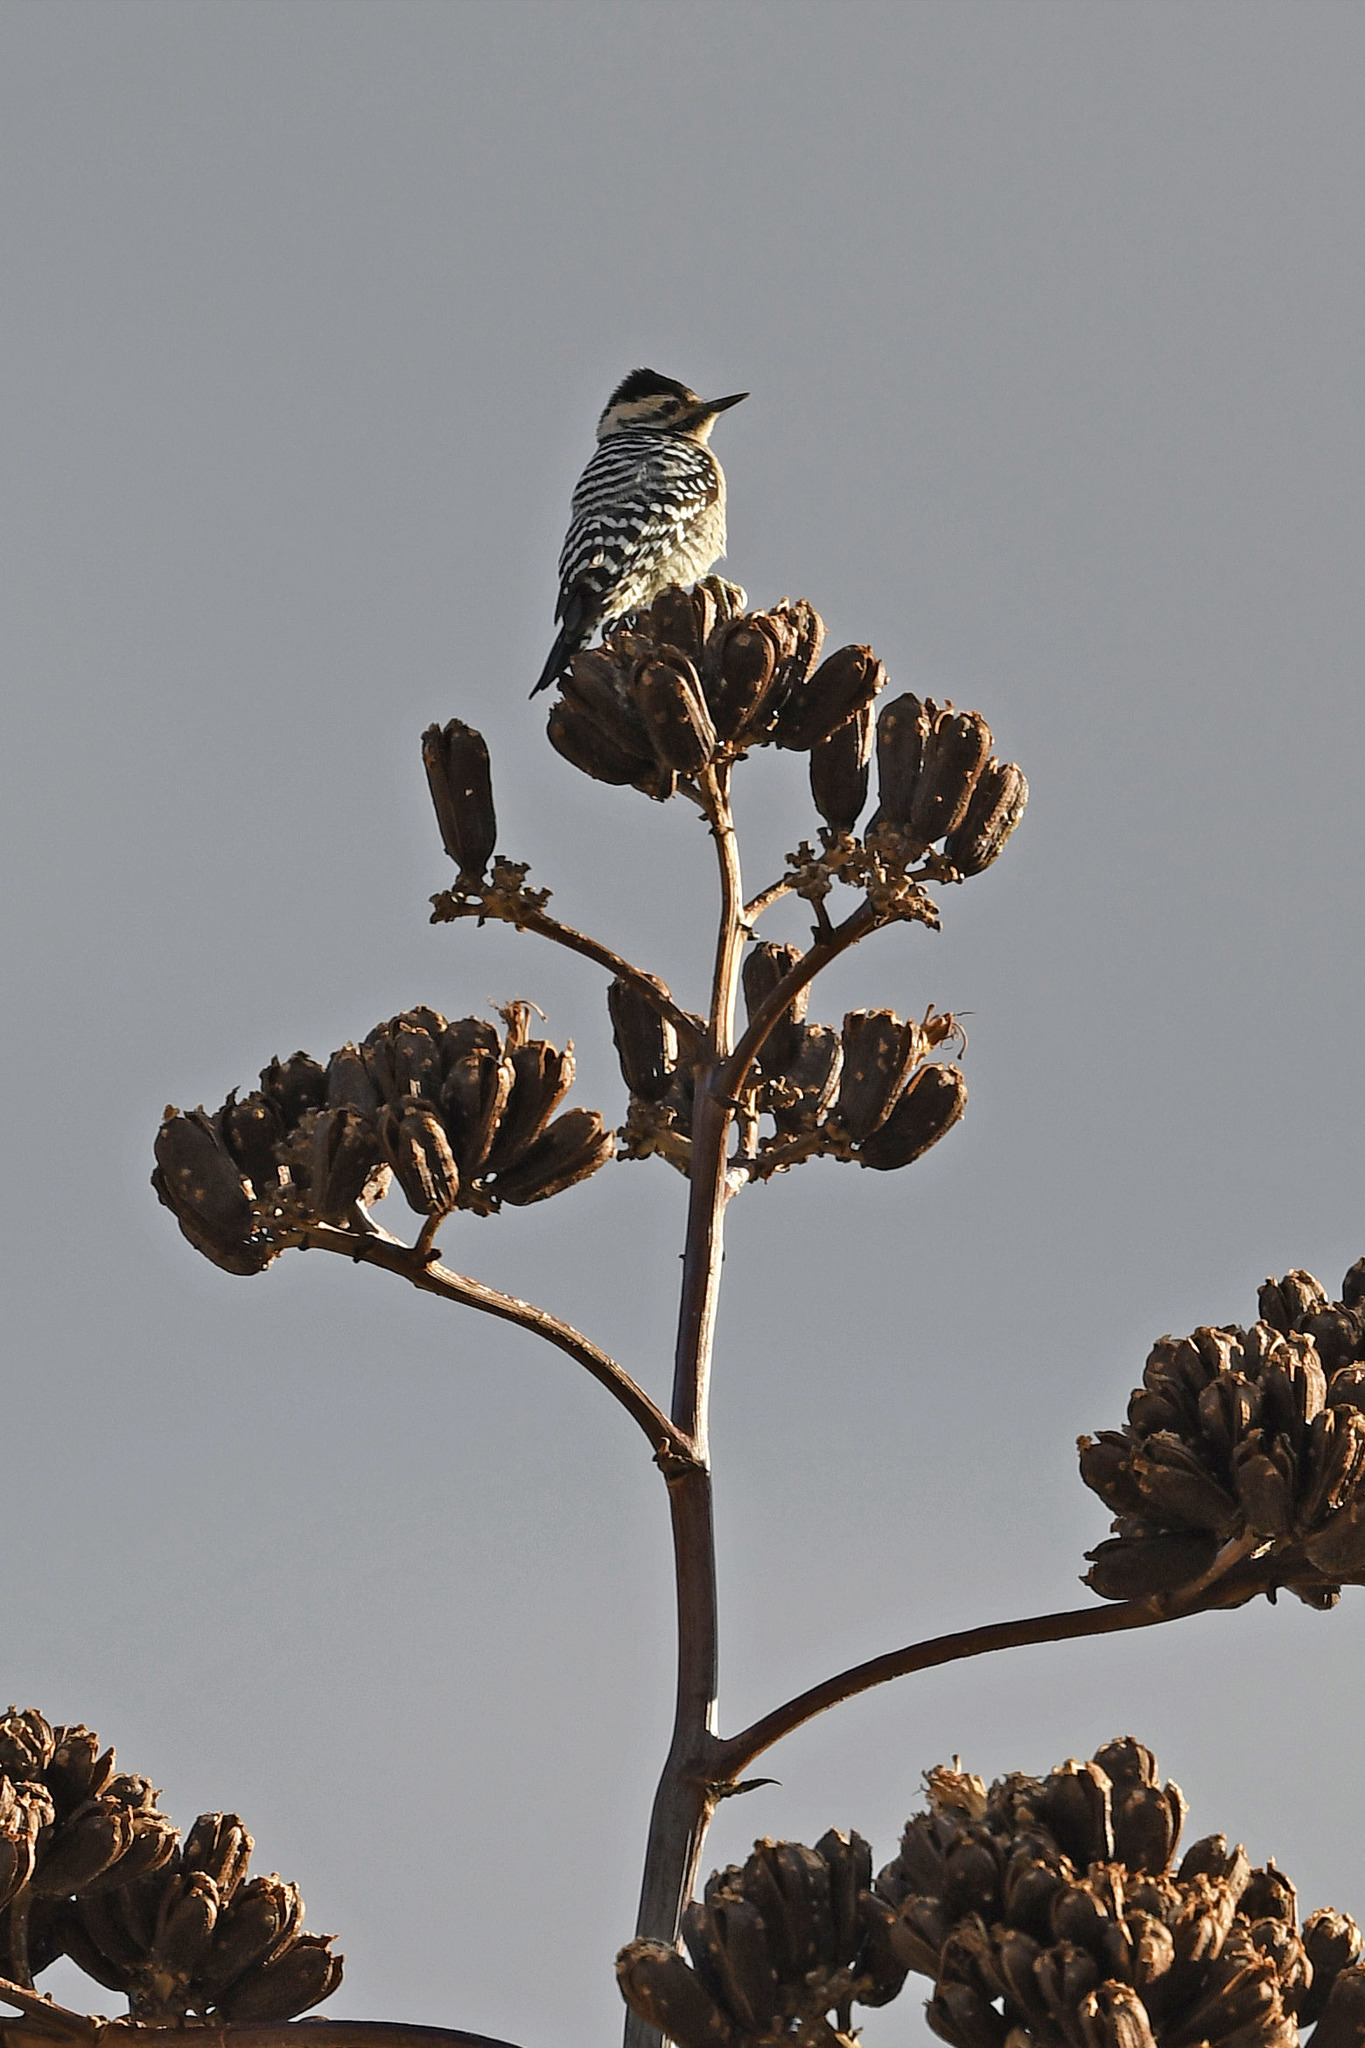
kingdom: Animalia
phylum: Chordata
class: Aves
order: Piciformes
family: Picidae
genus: Dryobates
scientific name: Dryobates scalaris
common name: Ladder-backed woodpecker
